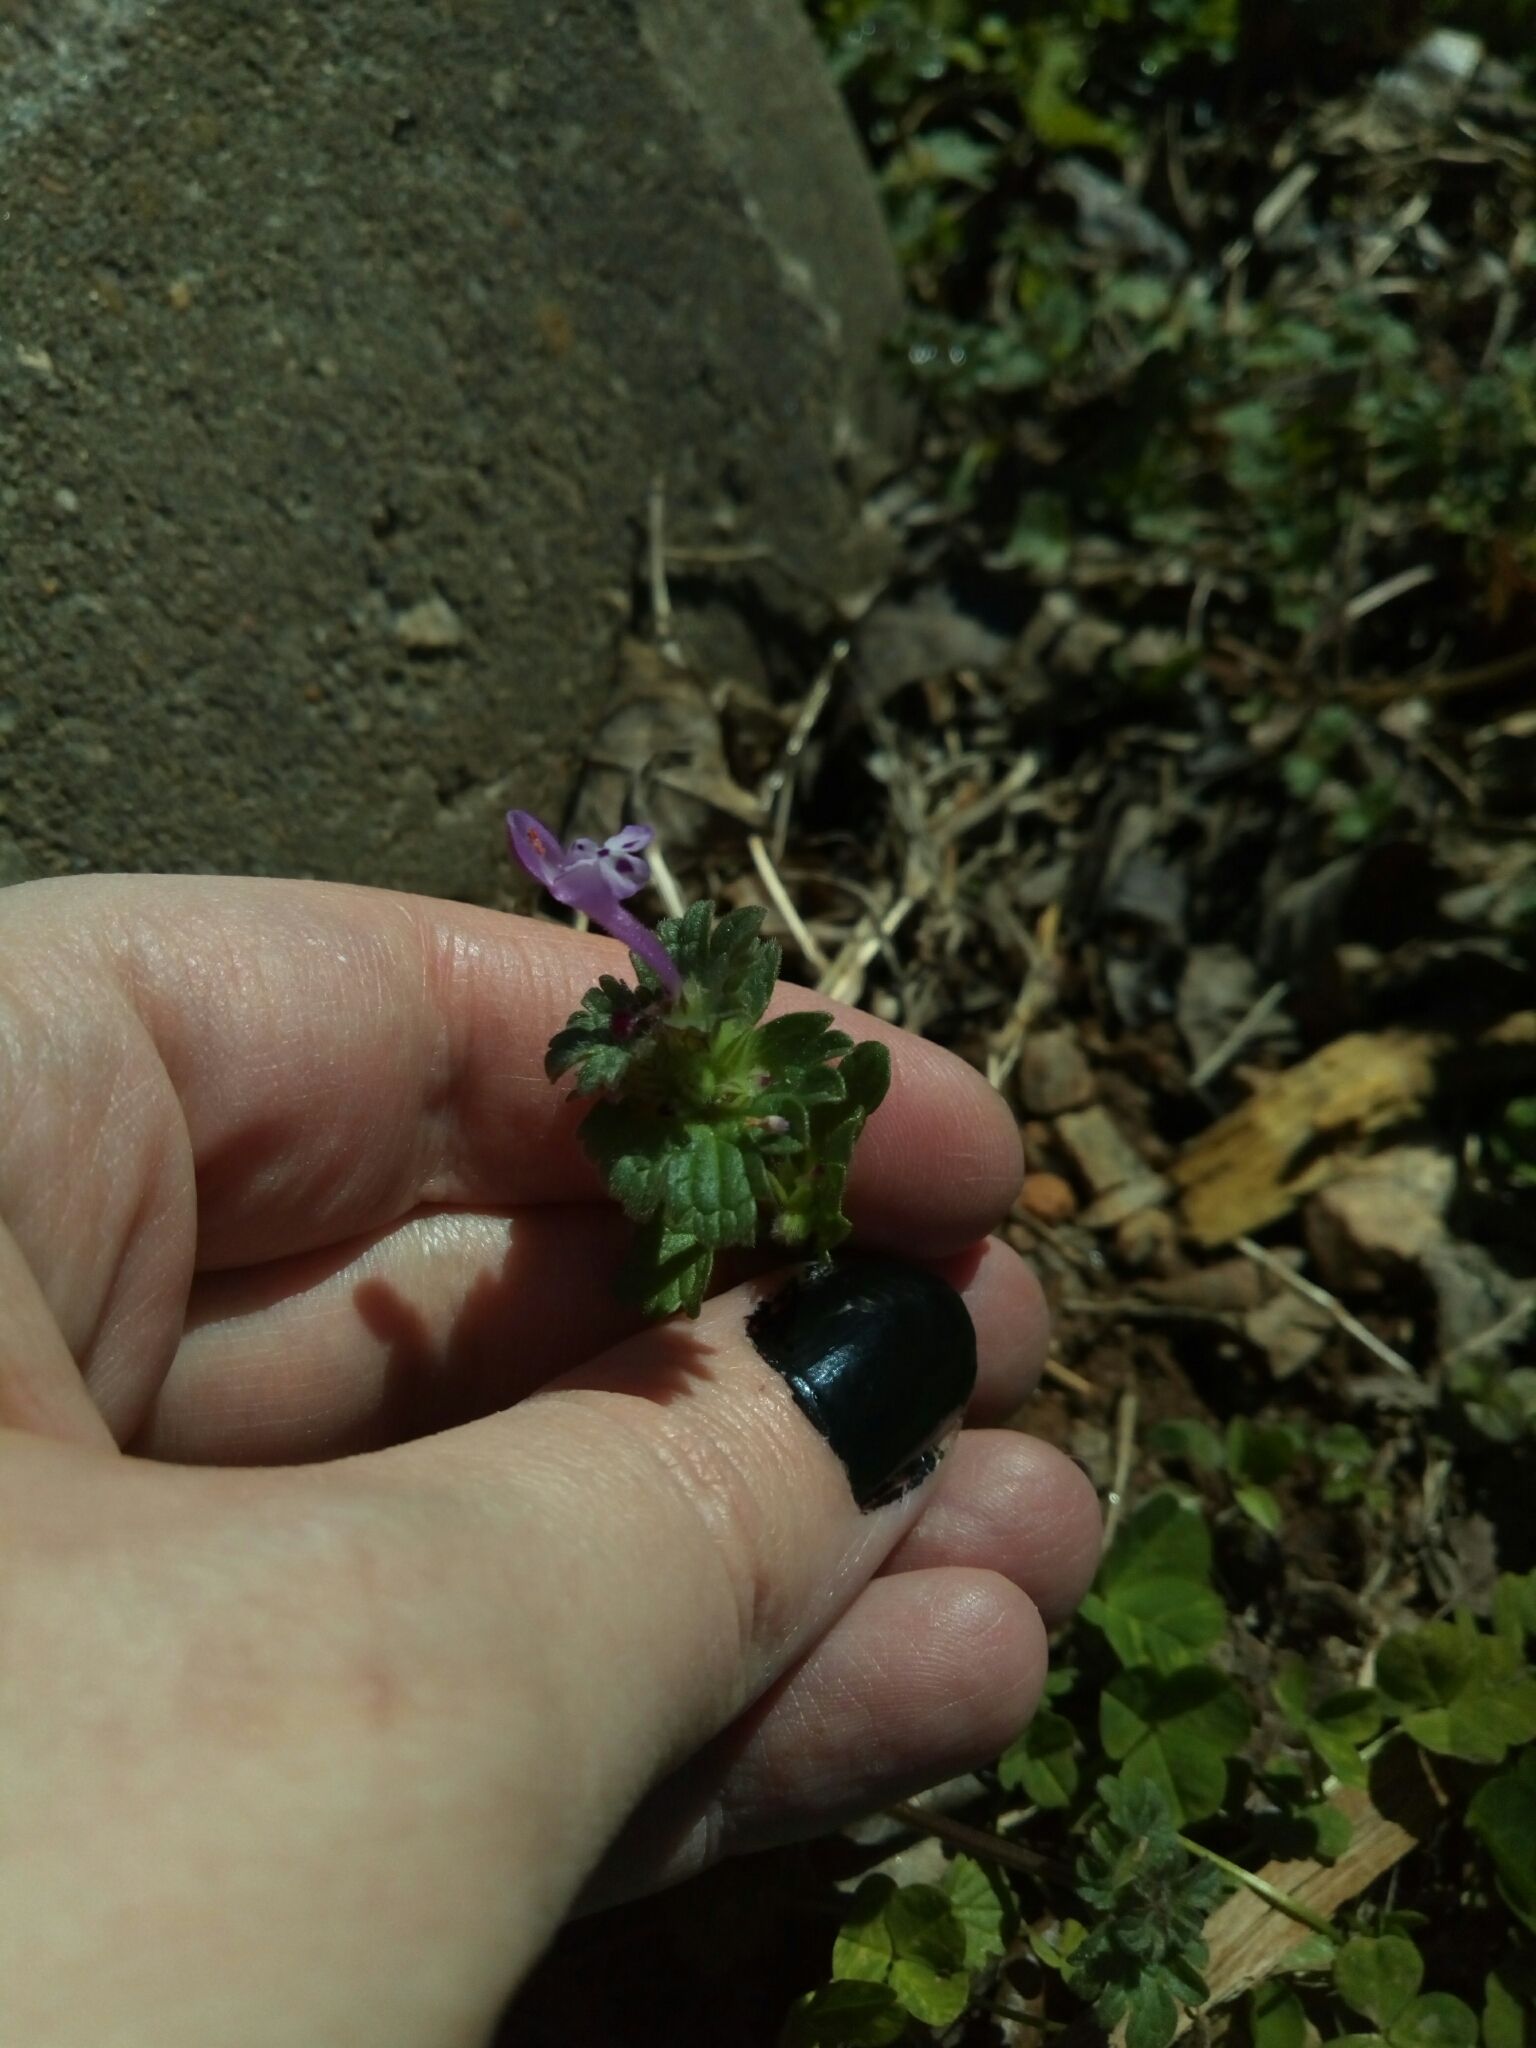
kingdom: Plantae
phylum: Tracheophyta
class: Magnoliopsida
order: Lamiales
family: Lamiaceae
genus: Lamium
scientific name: Lamium amplexicaule
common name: Henbit dead-nettle
